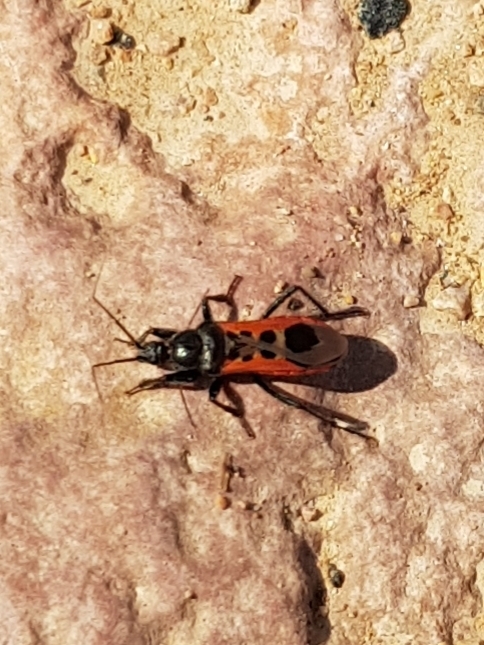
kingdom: Animalia
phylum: Arthropoda
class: Insecta
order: Hemiptera
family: Reduviidae
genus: Peirates
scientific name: Peirates stridulus
